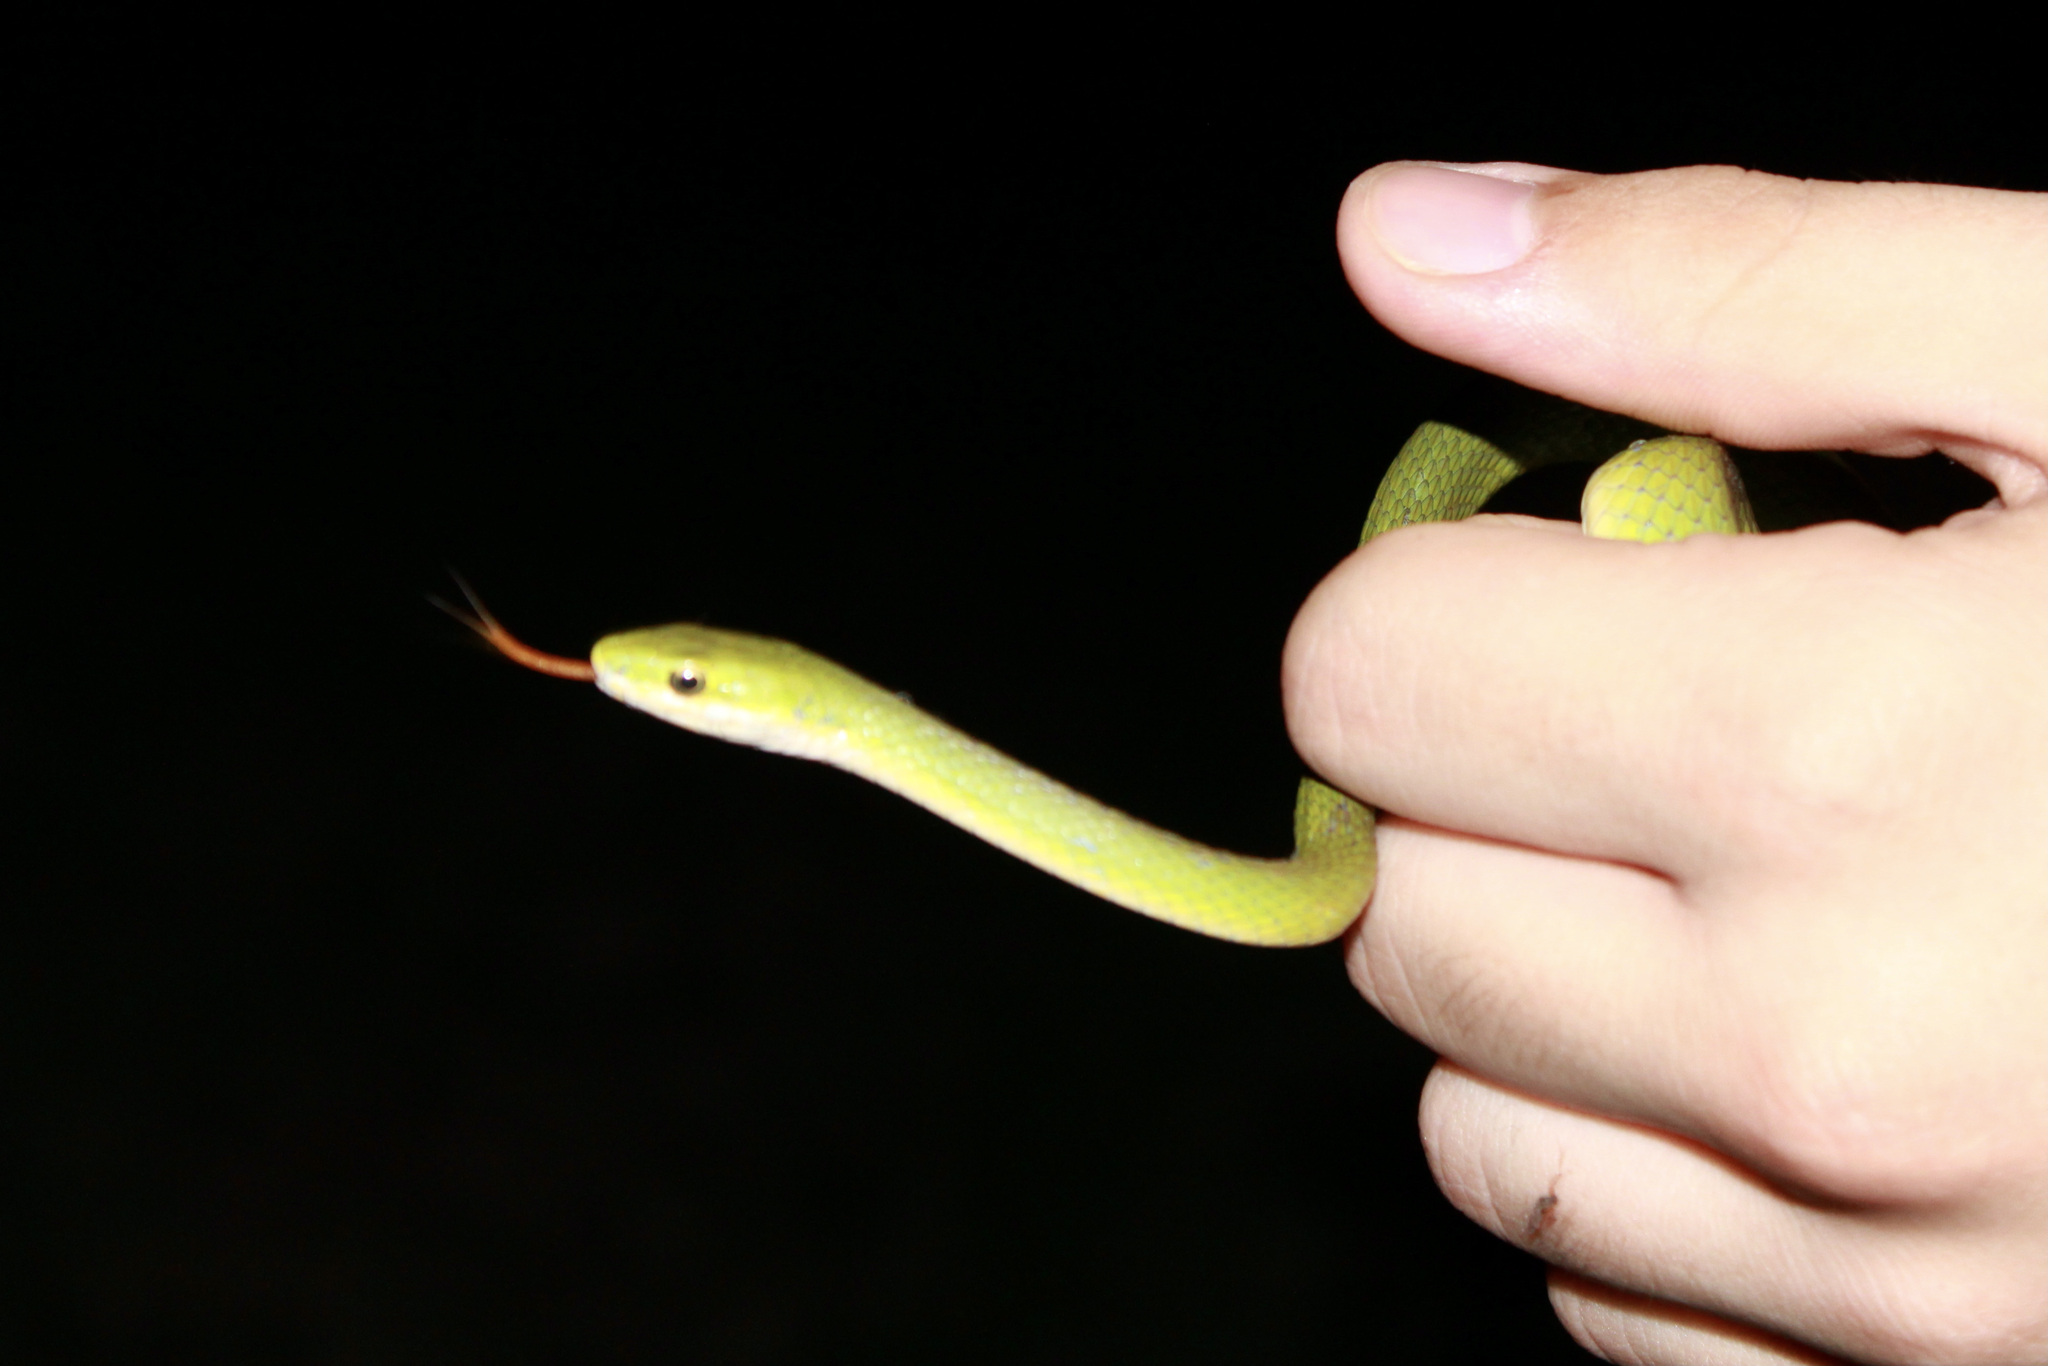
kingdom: Animalia
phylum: Chordata
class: Squamata
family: Colubridae
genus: Opheodrys
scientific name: Opheodrys aestivus
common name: Rough greensnake
